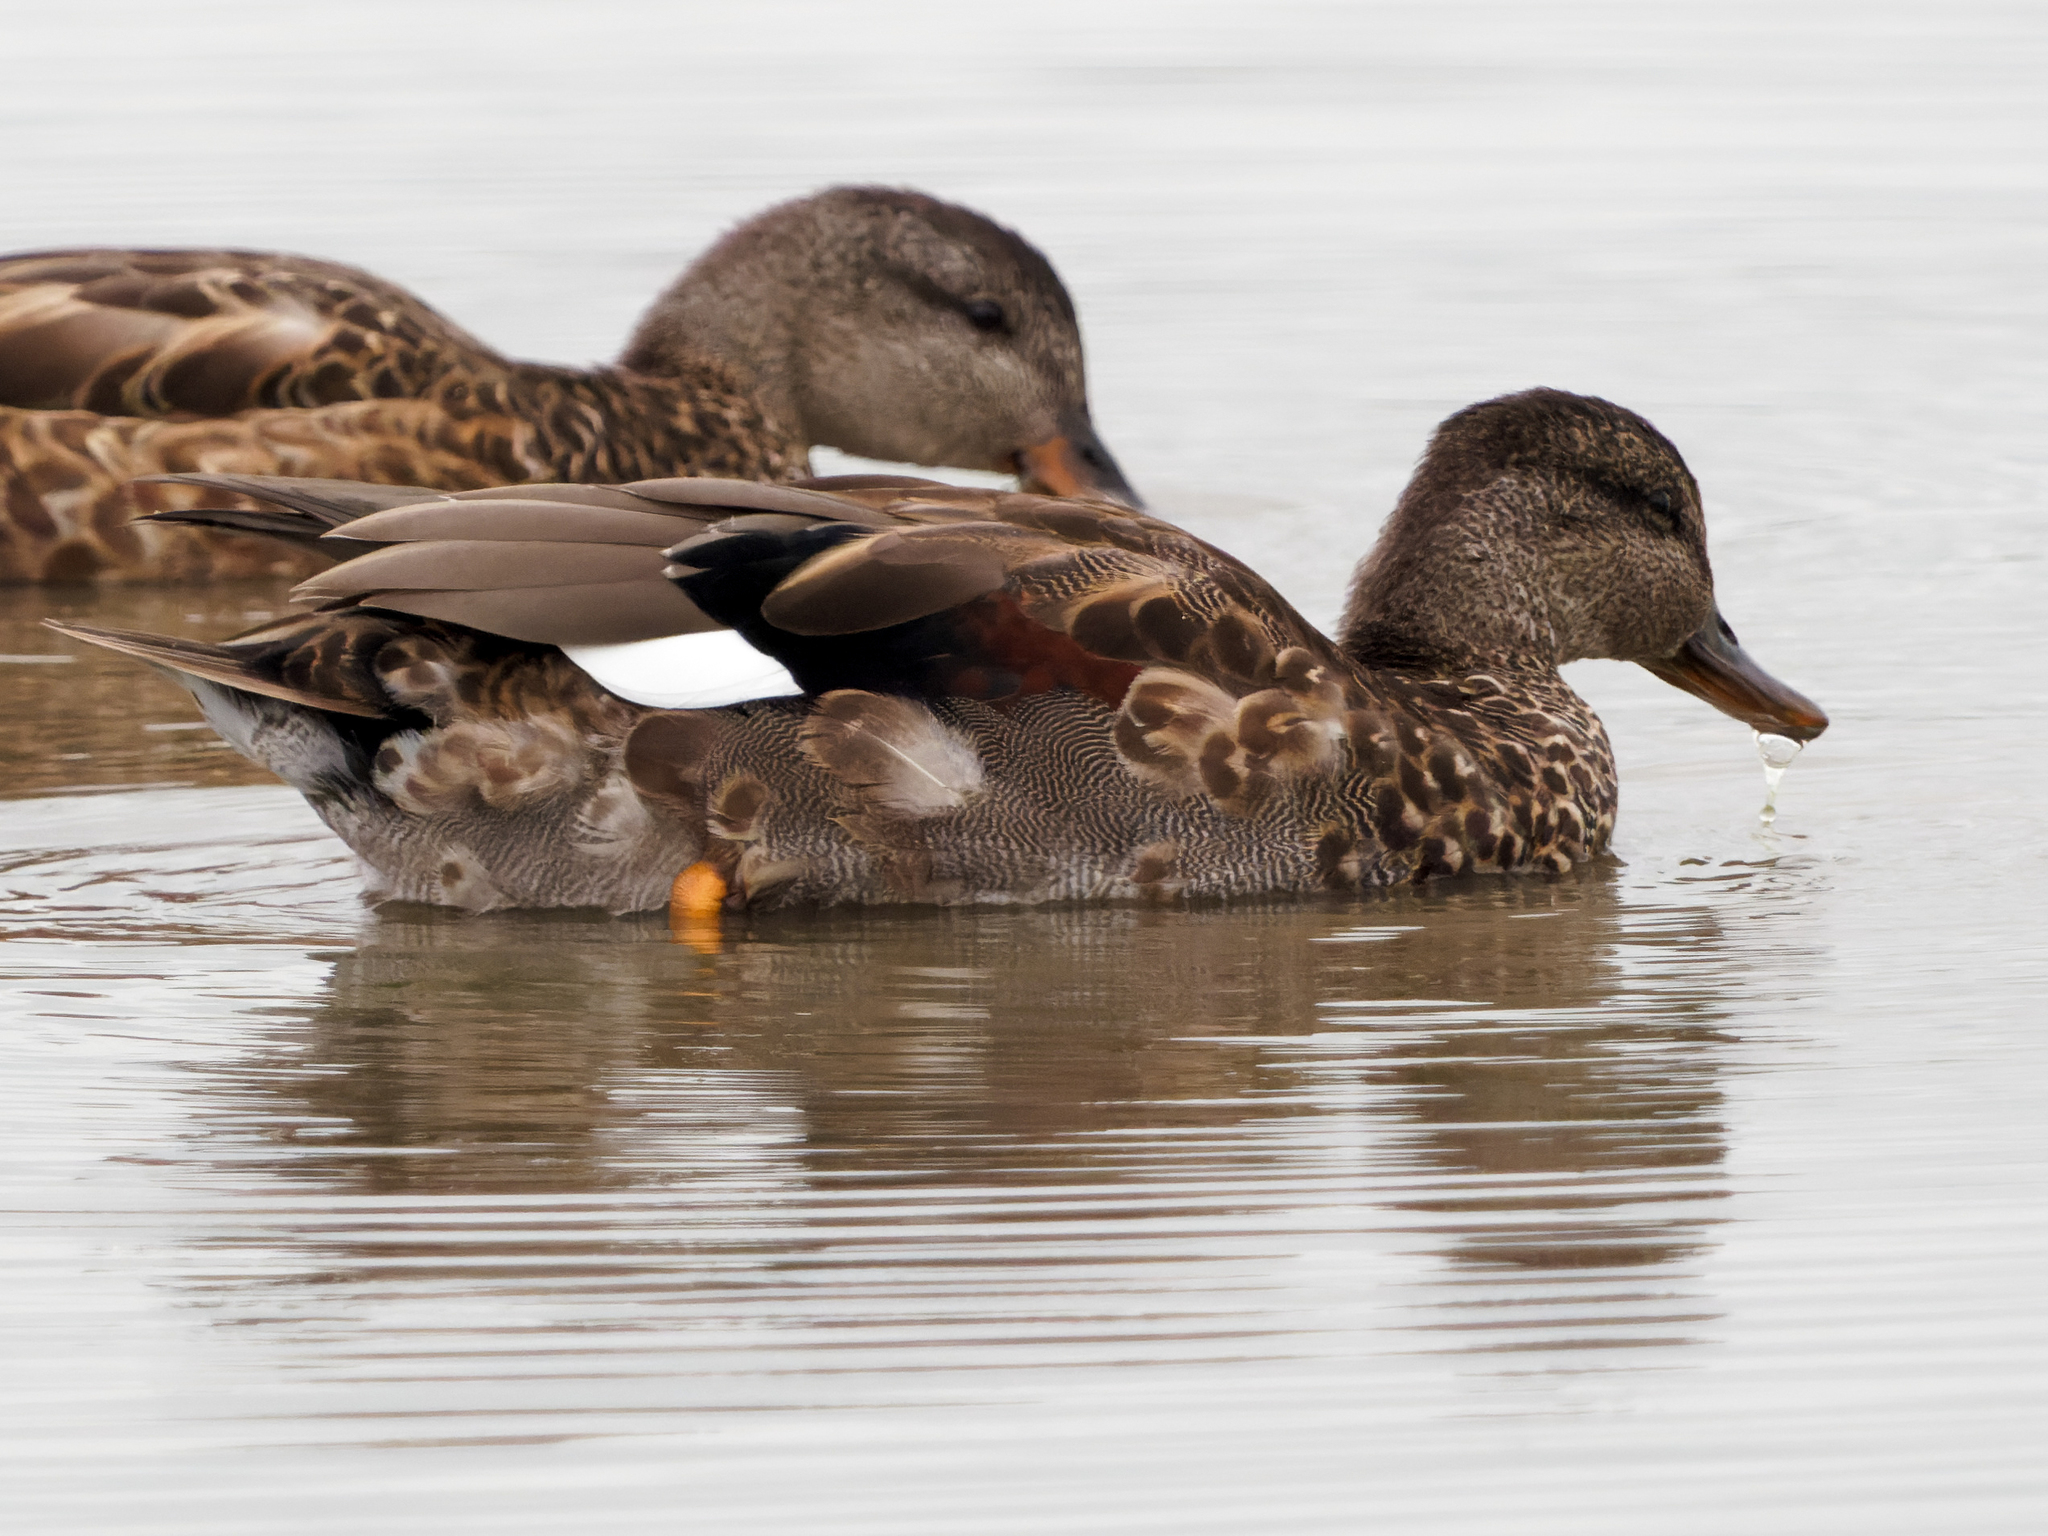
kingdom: Animalia
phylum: Chordata
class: Aves
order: Anseriformes
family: Anatidae
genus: Mareca
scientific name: Mareca strepera
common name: Gadwall
